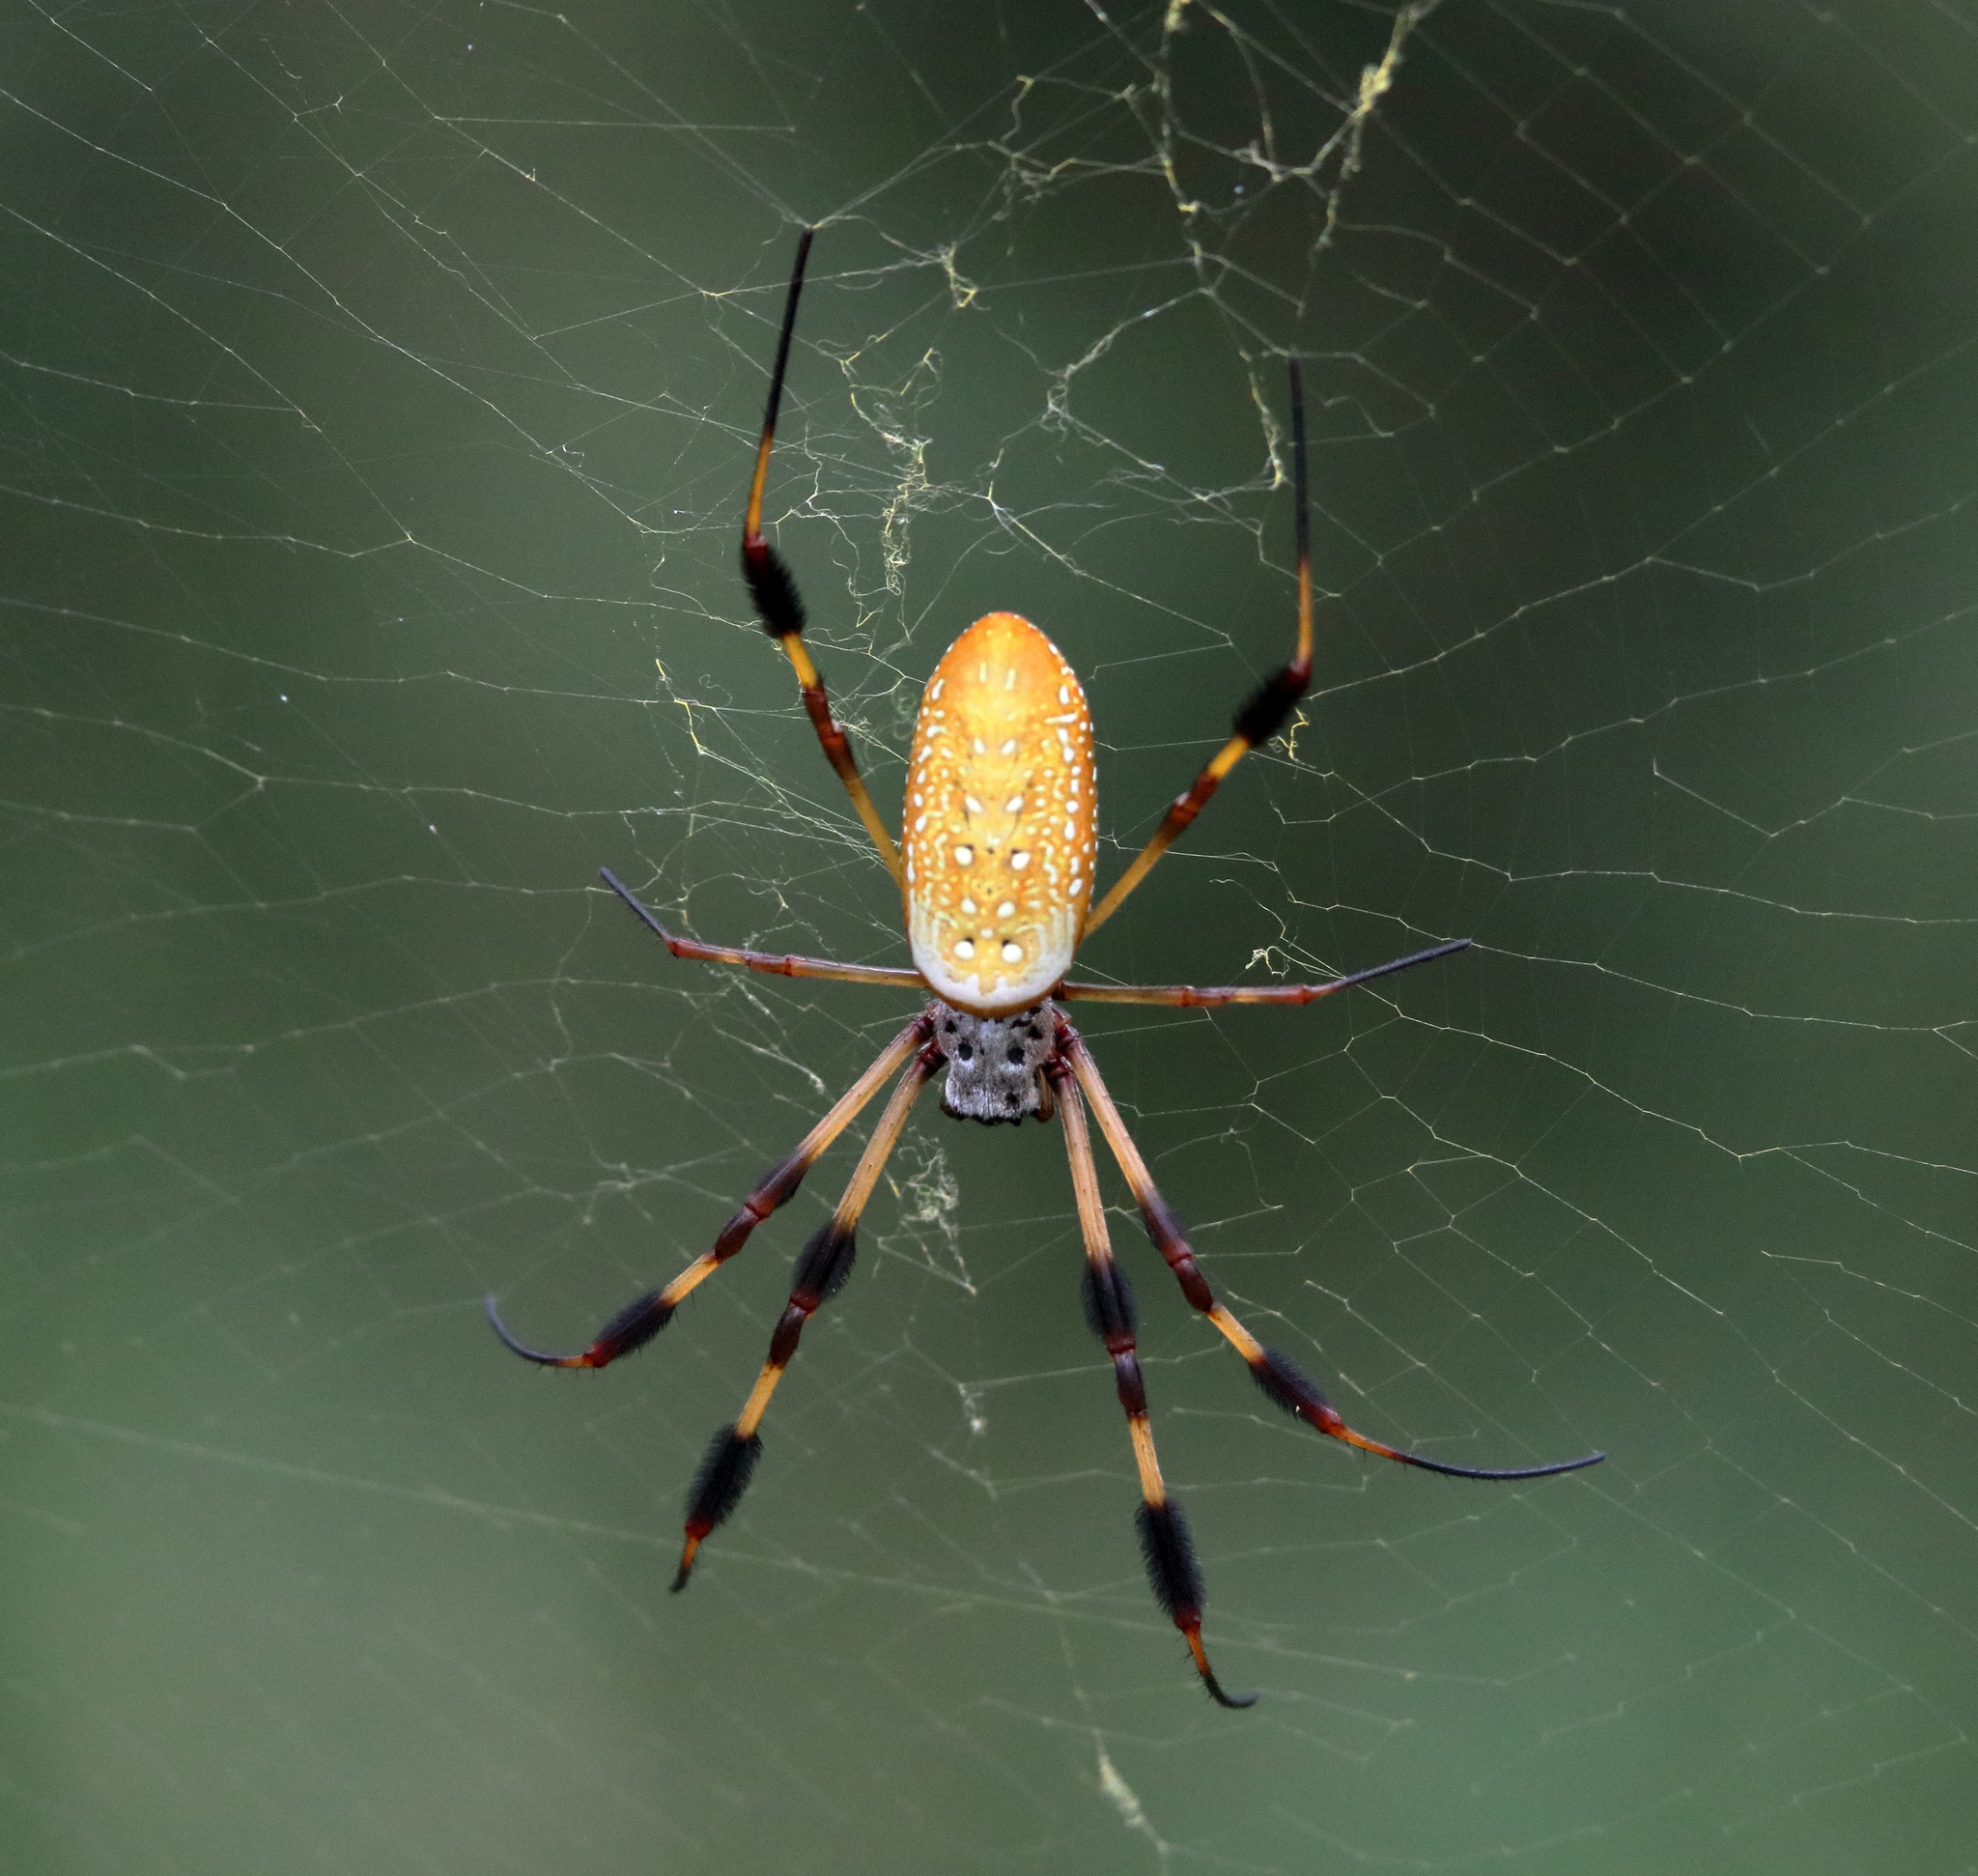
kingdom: Animalia
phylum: Arthropoda
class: Arachnida
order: Araneae
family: Araneidae
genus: Trichonephila
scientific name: Trichonephila clavipes
